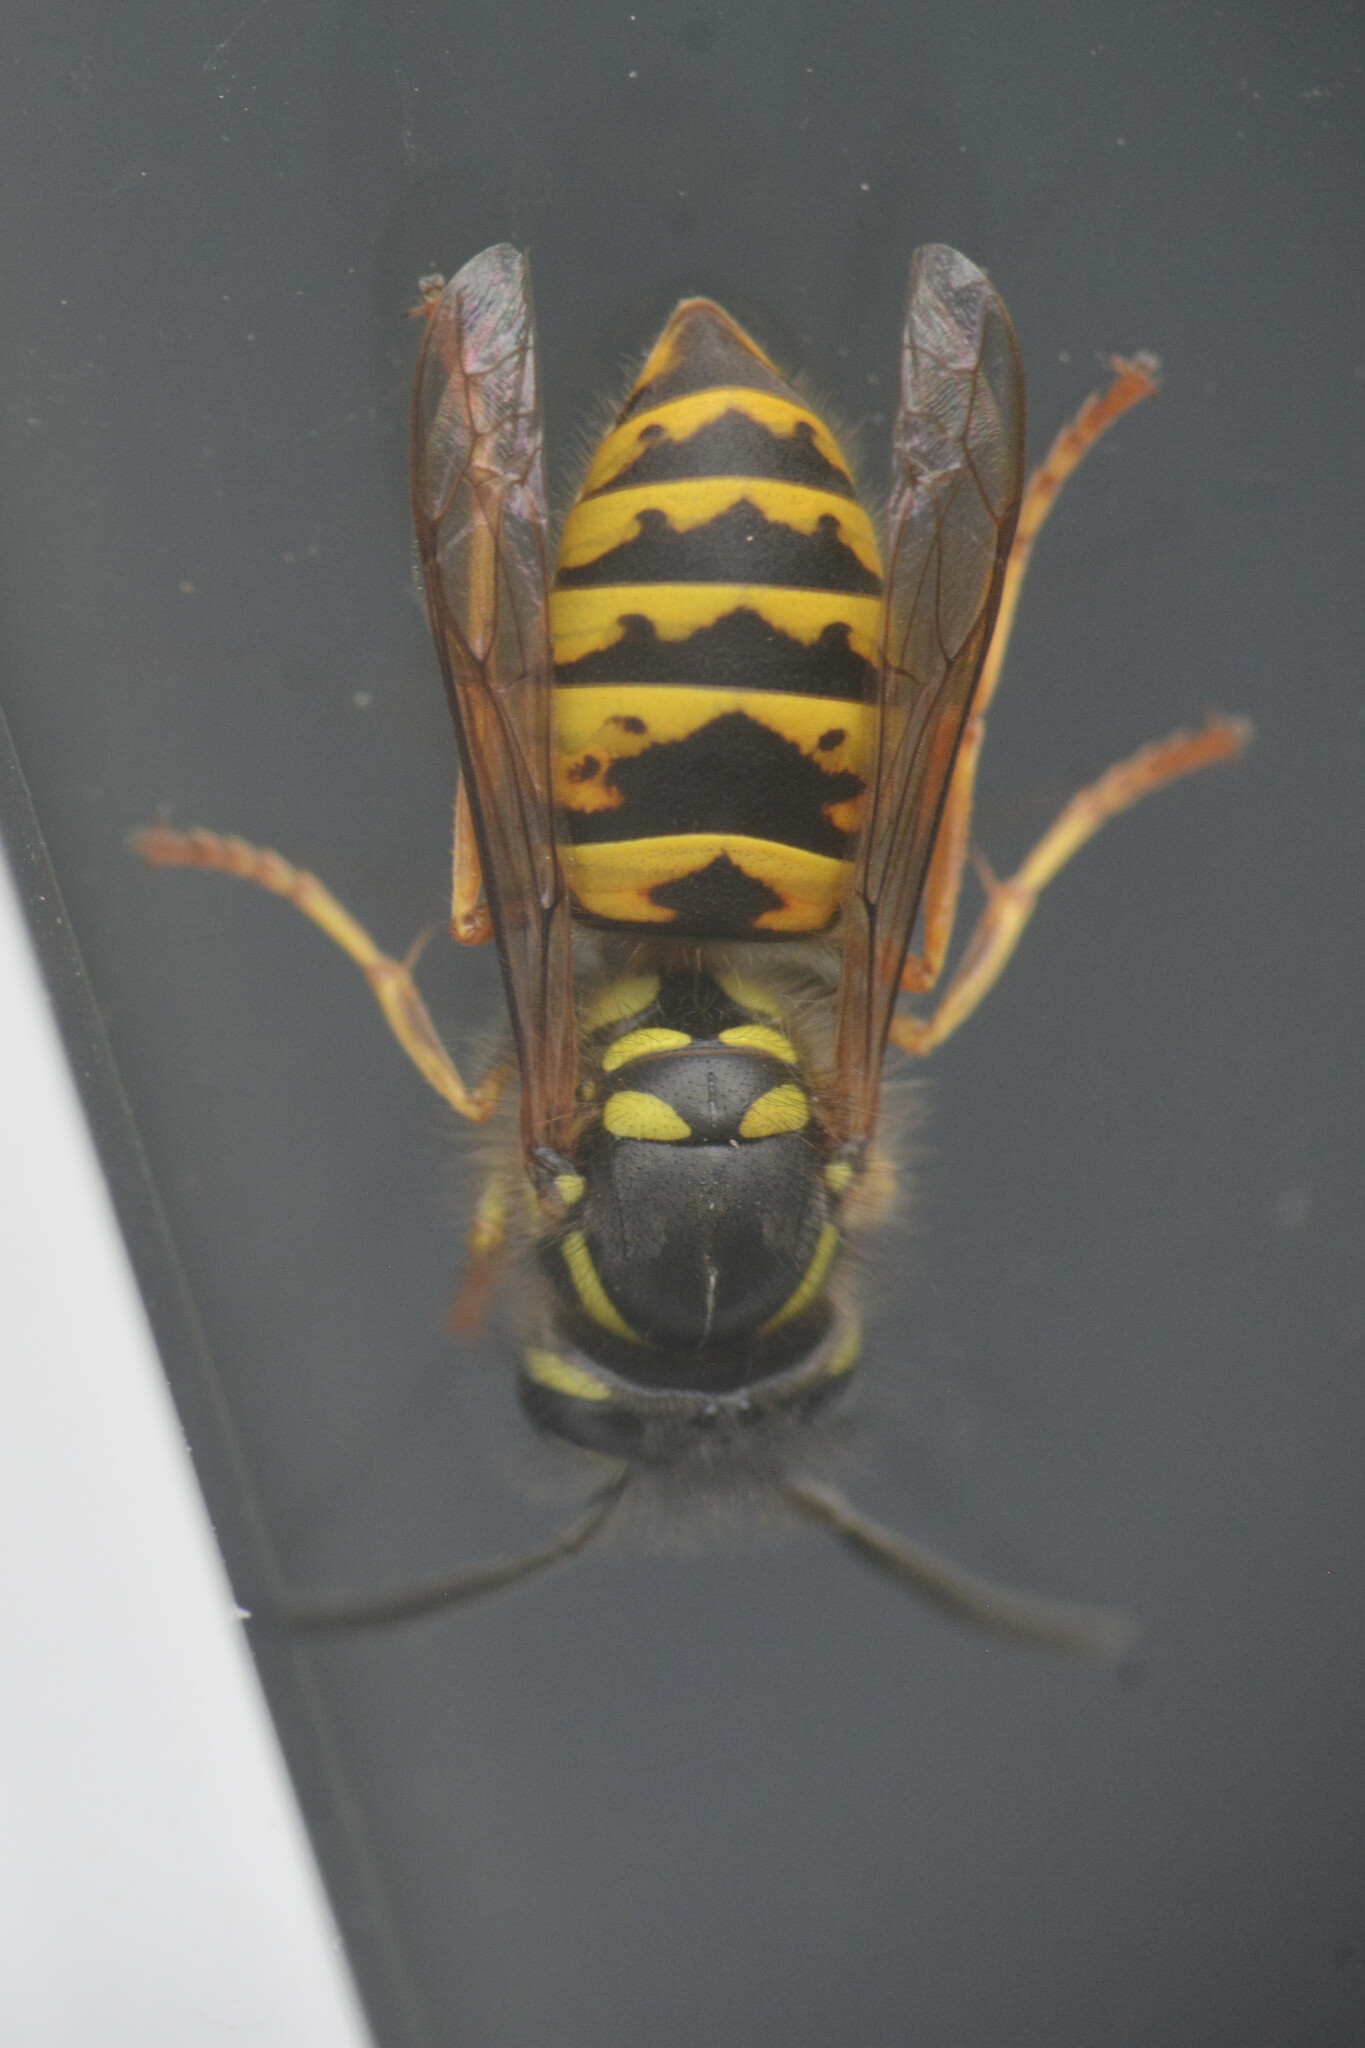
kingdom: Animalia
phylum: Arthropoda
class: Insecta
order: Hymenoptera
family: Vespidae
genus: Vespula
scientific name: Vespula vulgaris
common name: Common wasp
